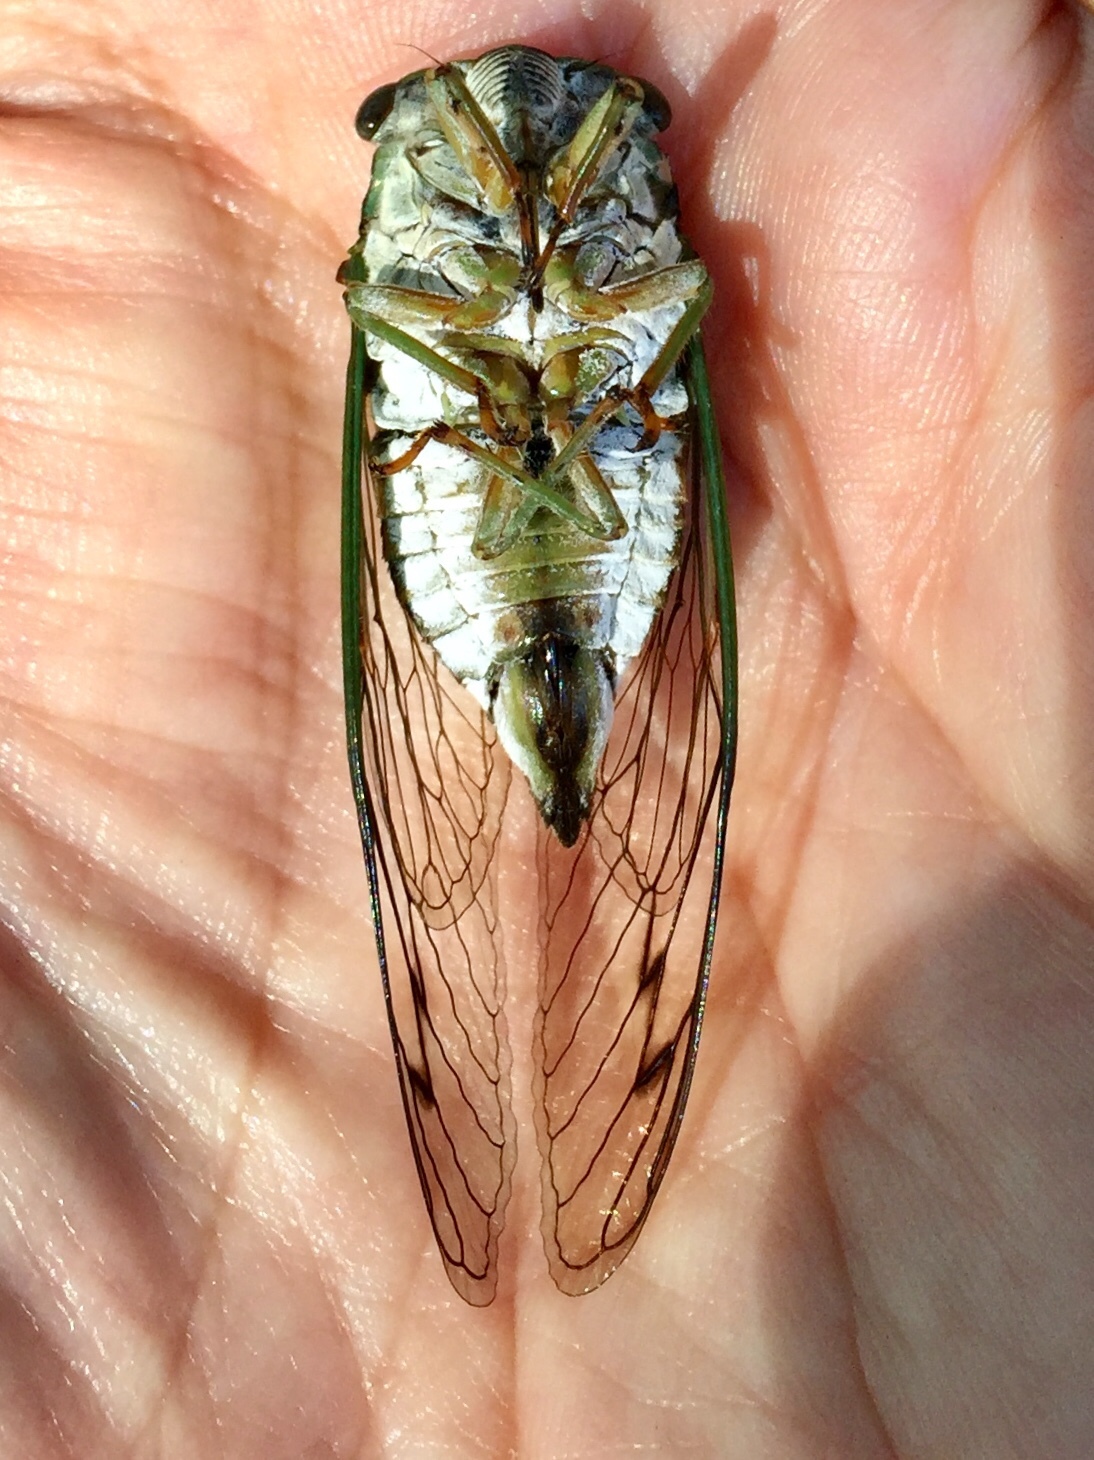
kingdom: Animalia
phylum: Arthropoda
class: Insecta
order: Hemiptera
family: Cicadidae
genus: Neotibicen
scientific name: Neotibicen winnemanna
